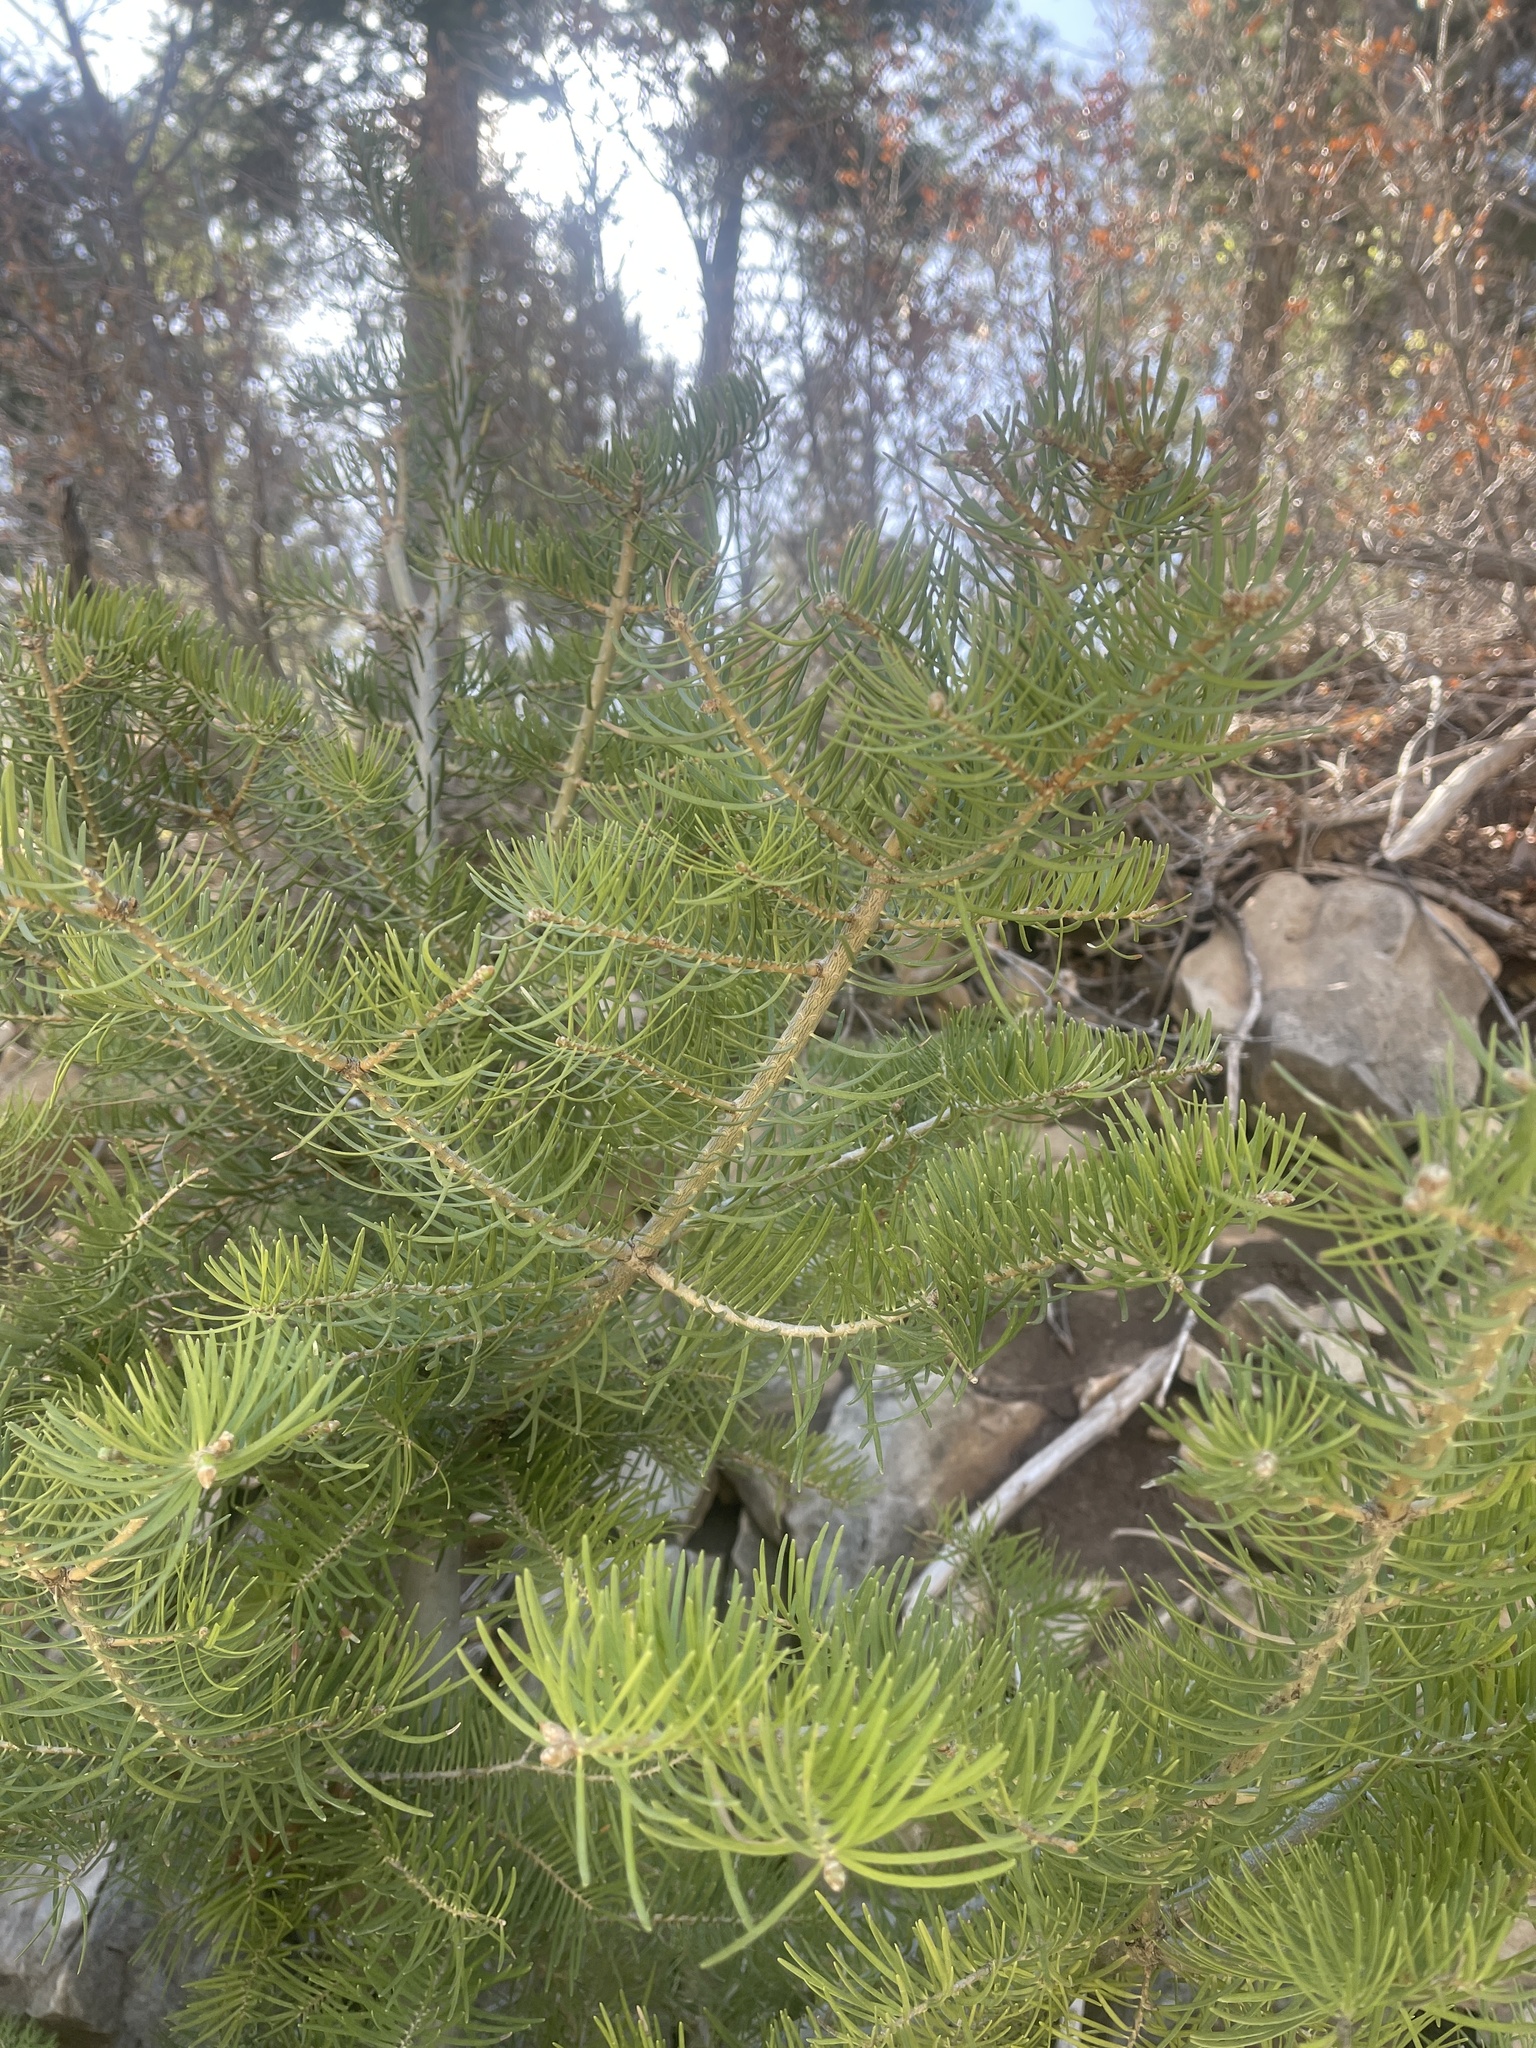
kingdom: Plantae
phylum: Tracheophyta
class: Pinopsida
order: Pinales
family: Pinaceae
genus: Abies
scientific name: Abies concolor
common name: Colorado fir
